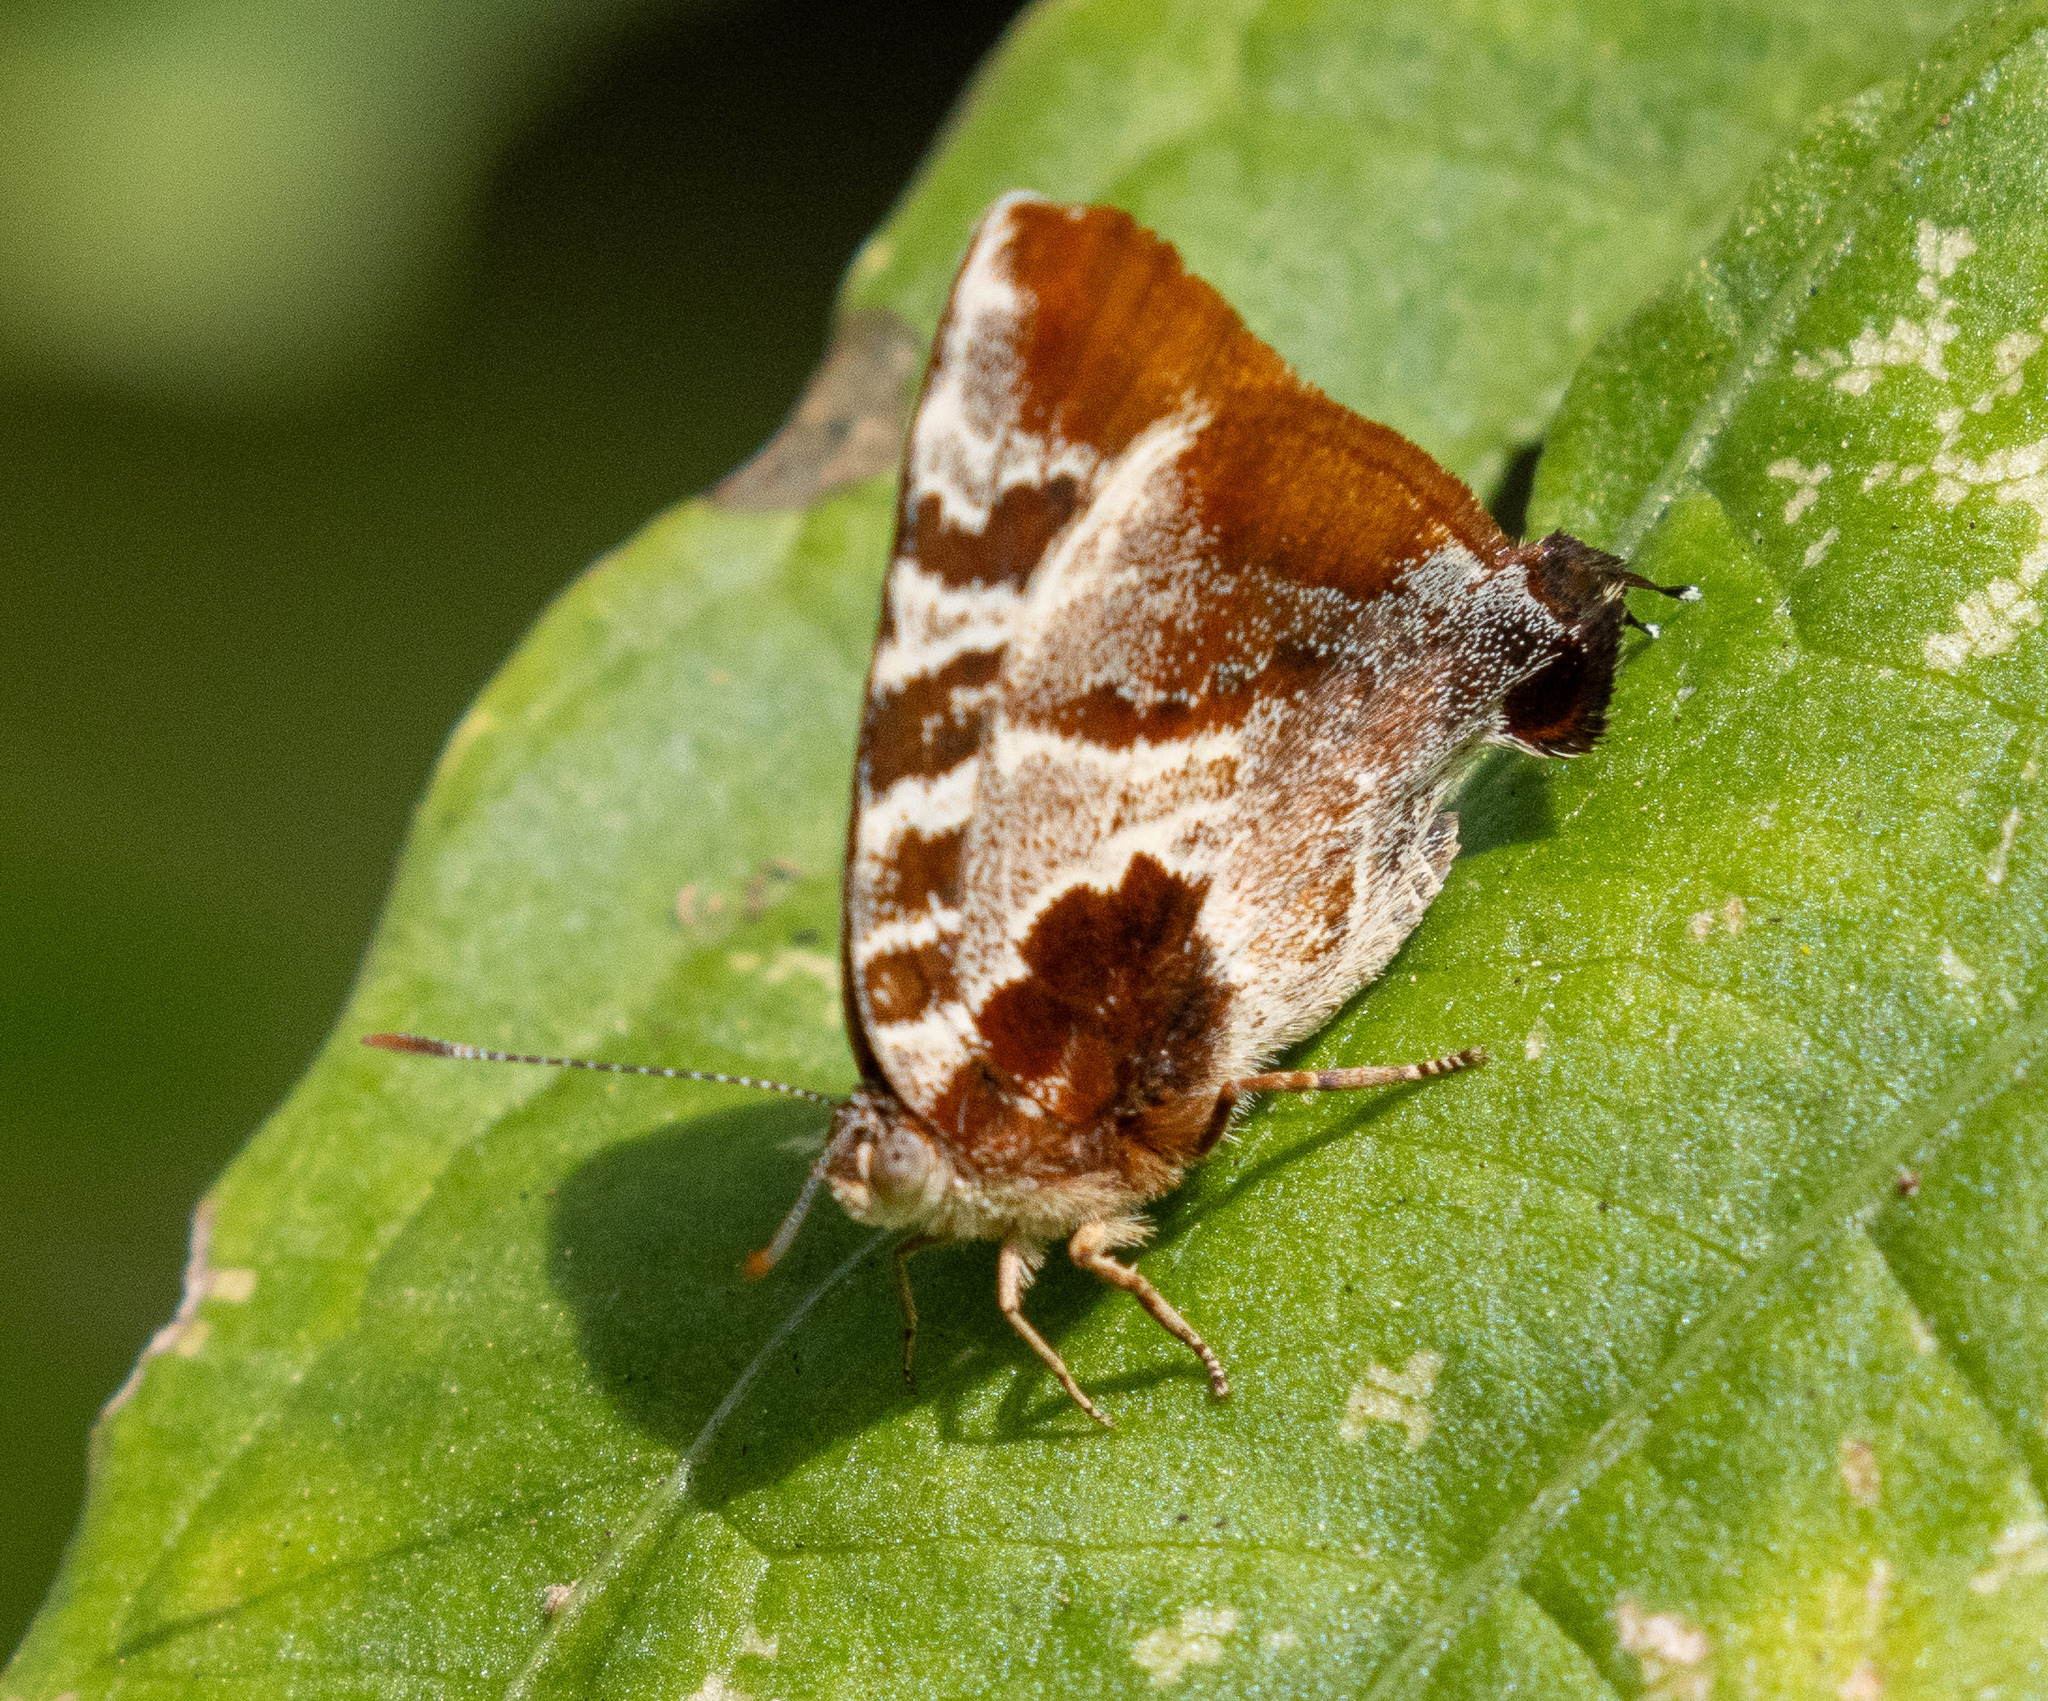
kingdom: Animalia
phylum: Arthropoda
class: Insecta
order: Lepidoptera
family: Lycaenidae
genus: Arawacus
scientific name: Arawacus ellida
